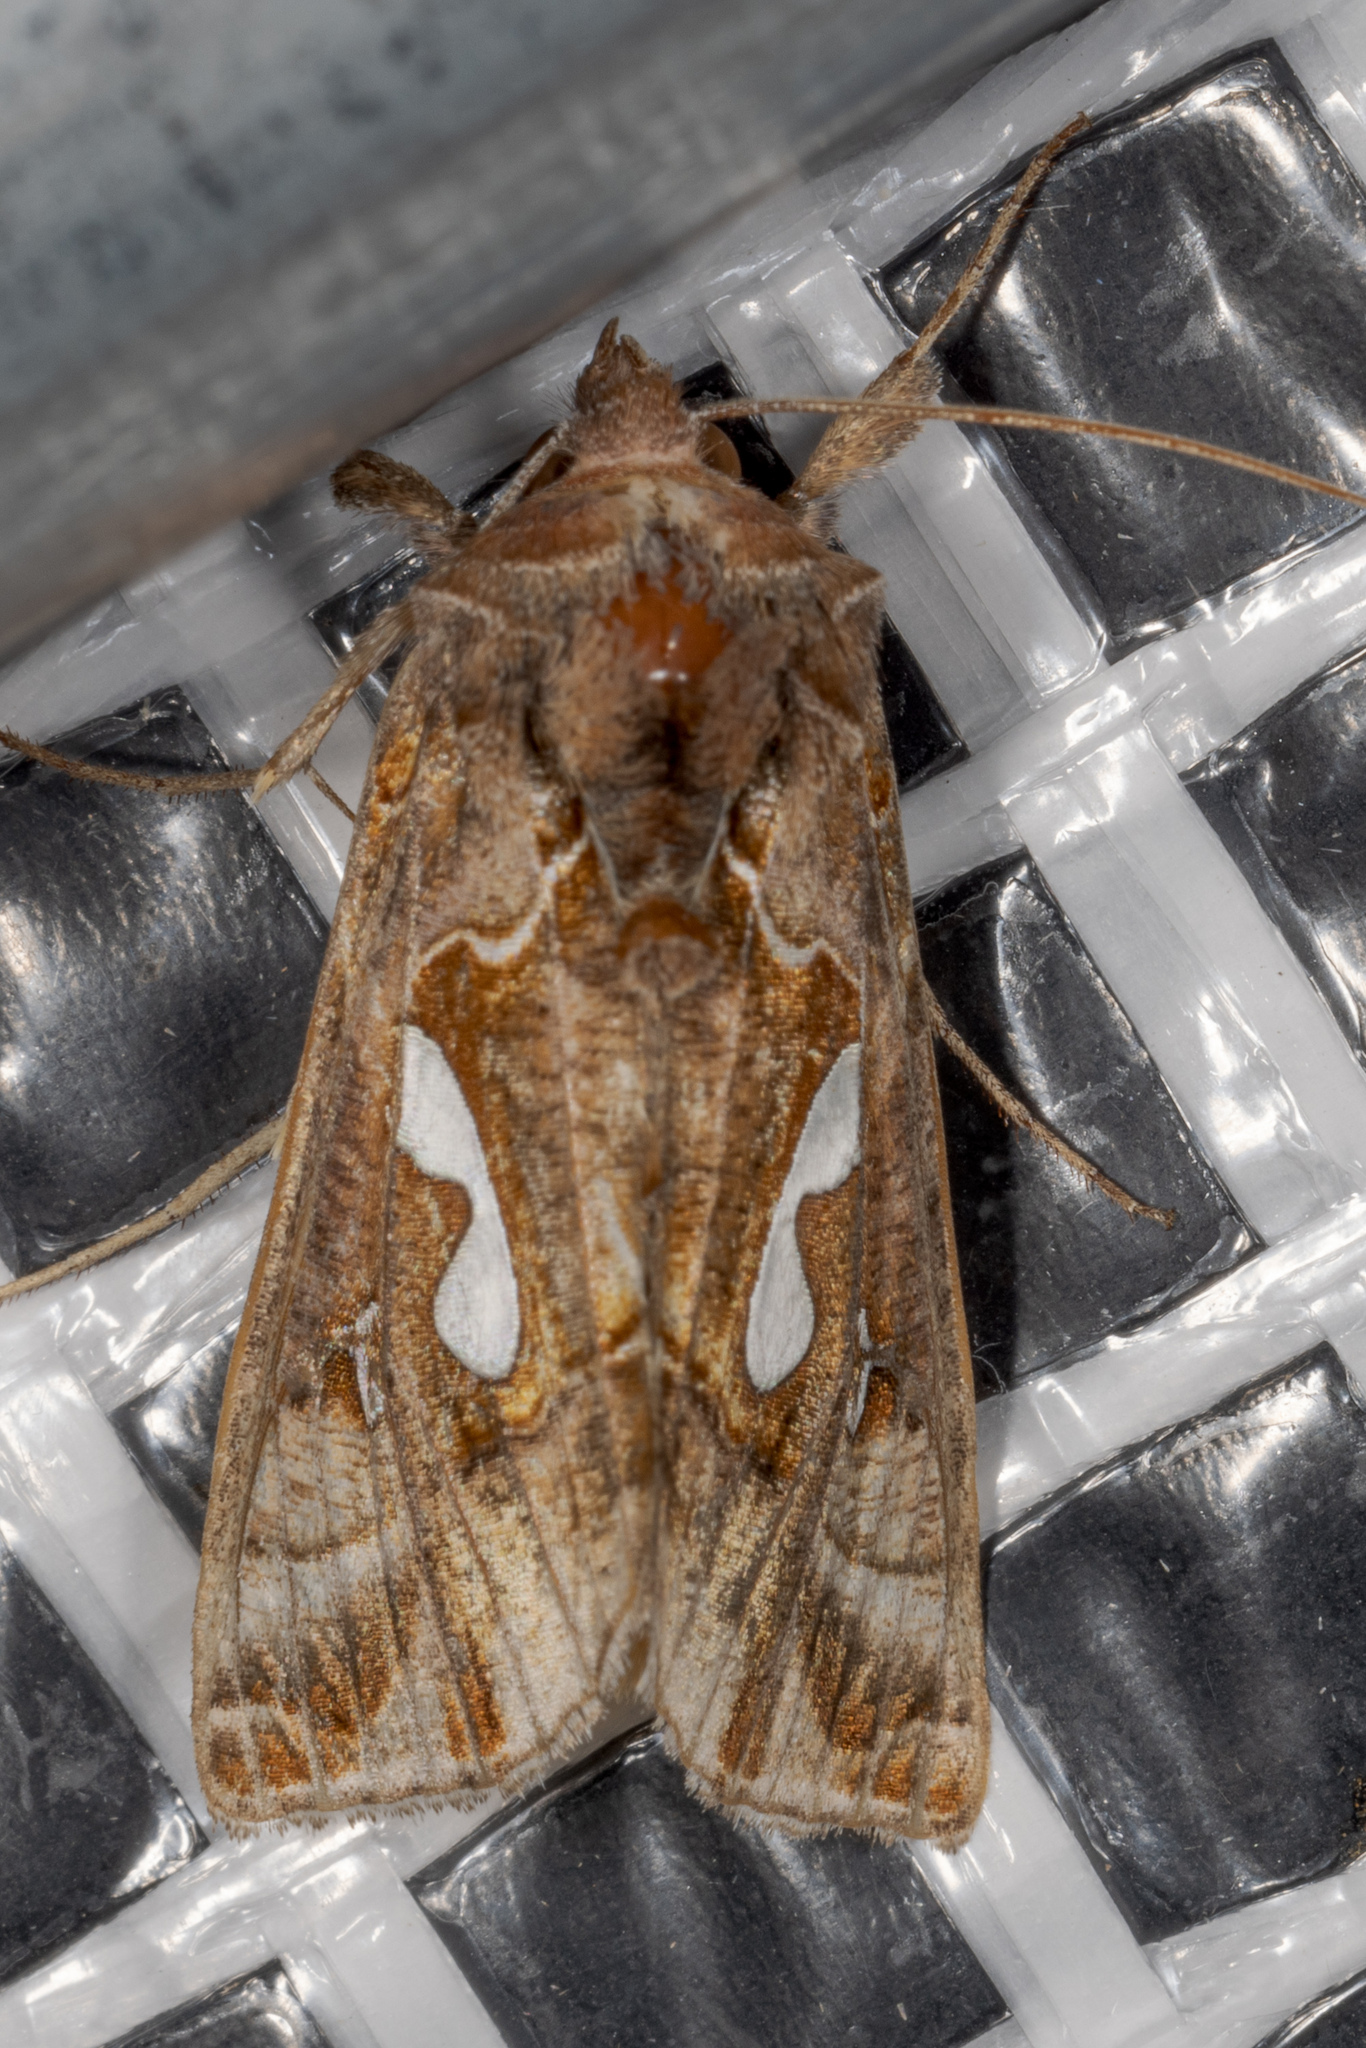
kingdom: Animalia
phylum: Arthropoda
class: Insecta
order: Lepidoptera
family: Noctuidae
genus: Megalographa
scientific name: Megalographa biloba
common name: Cutworm
